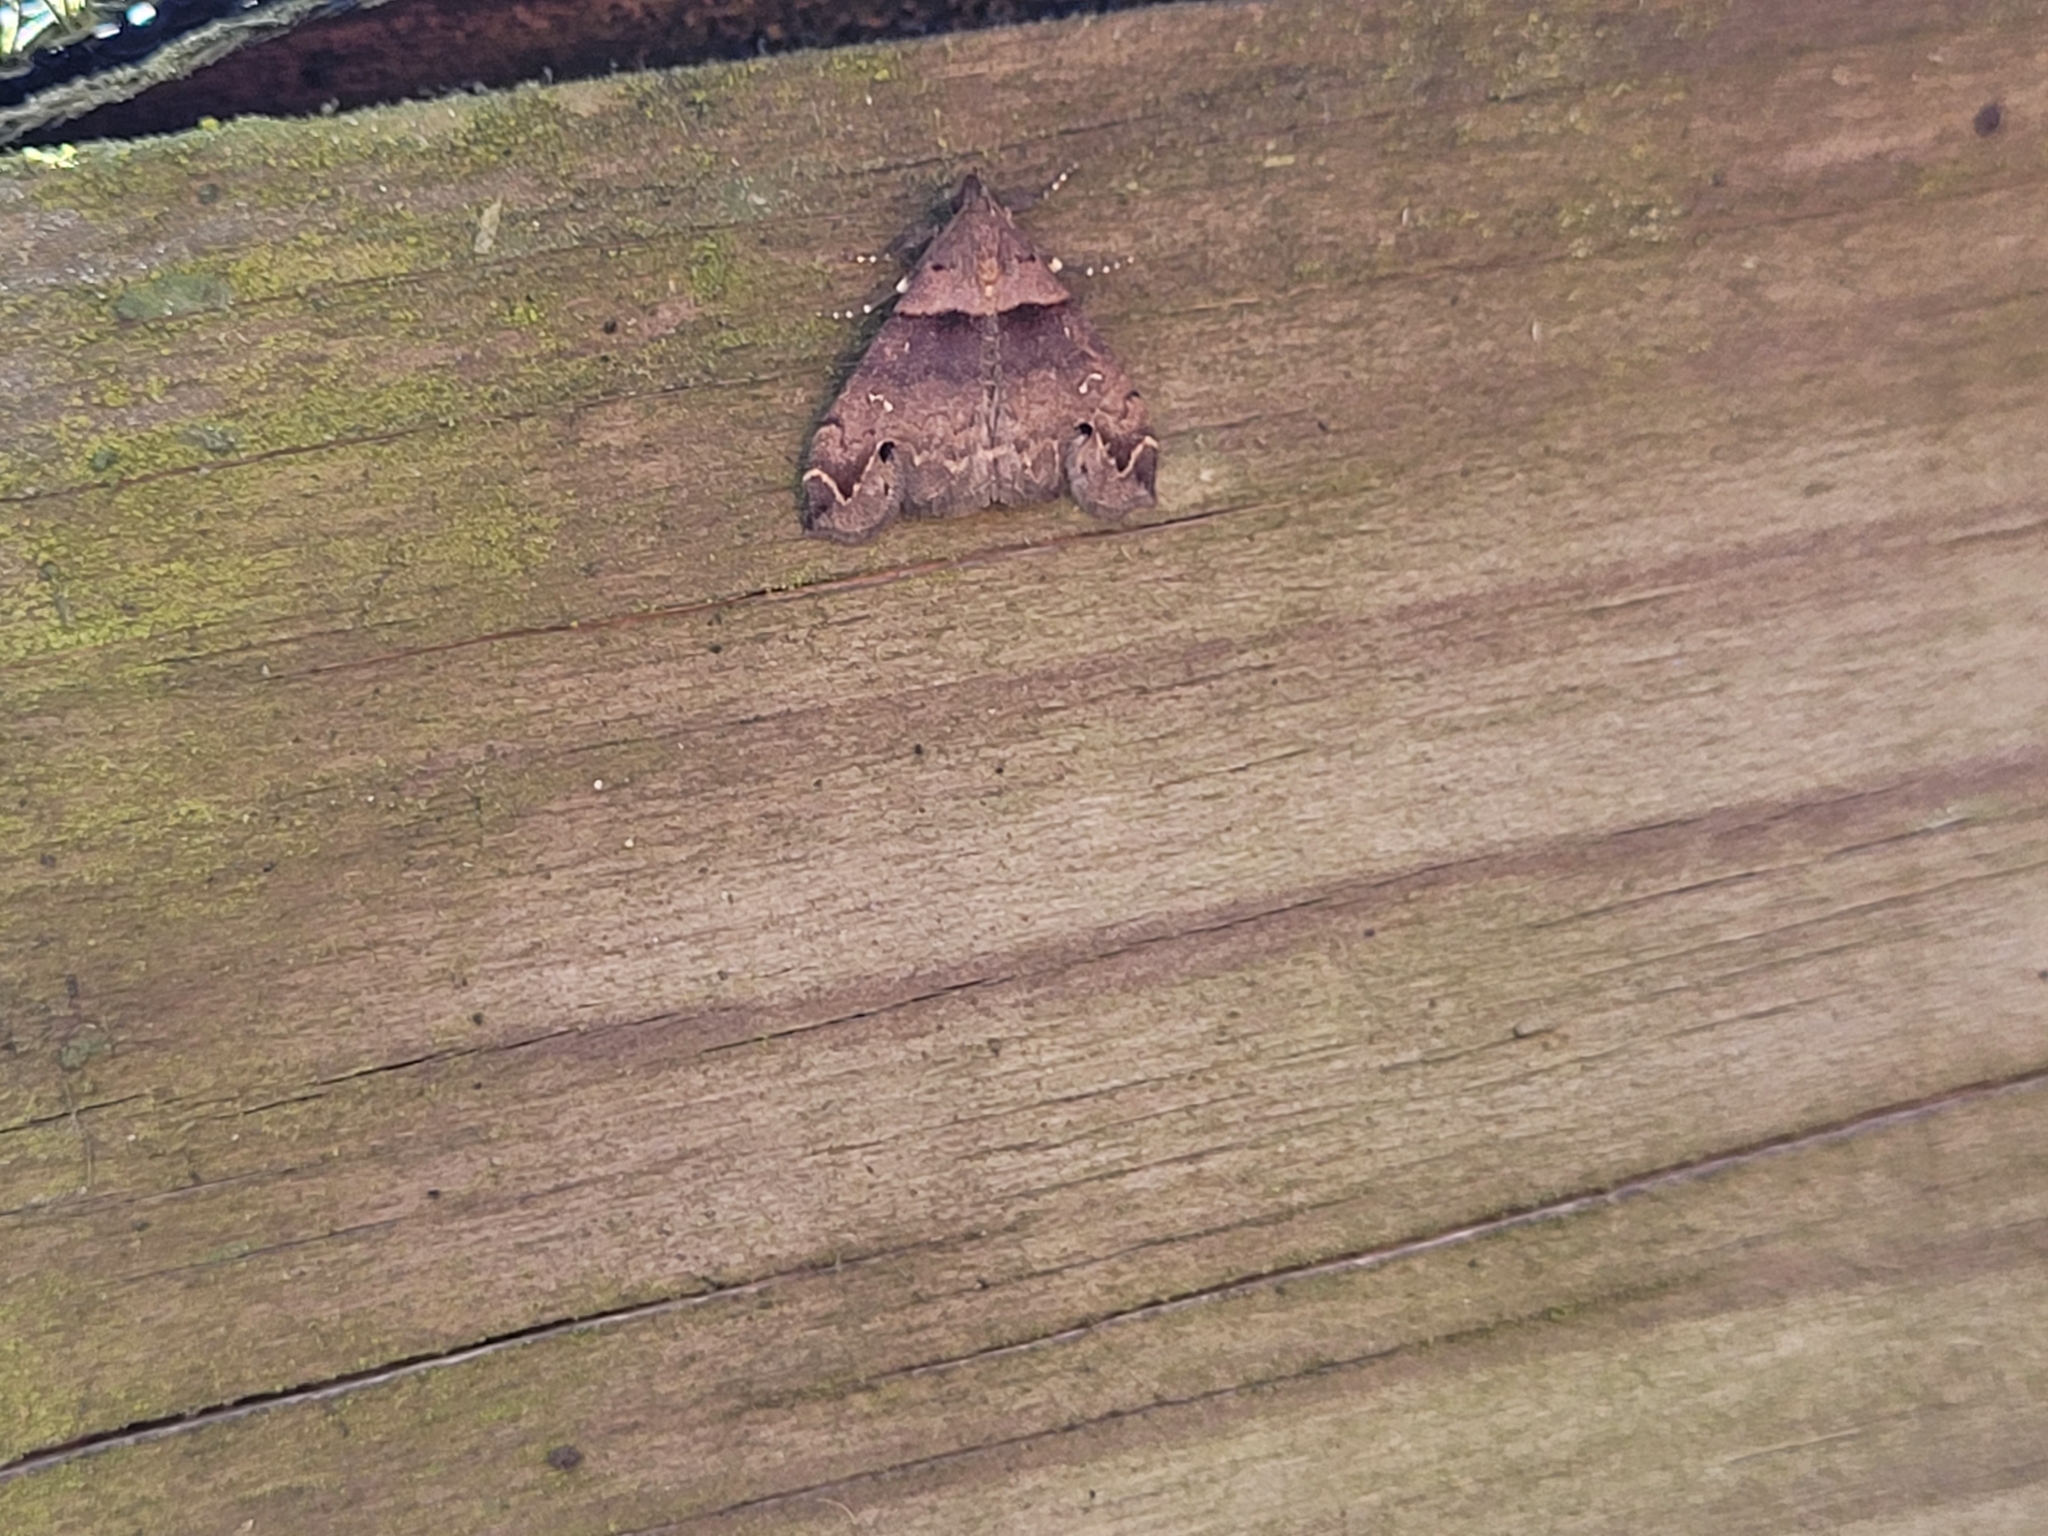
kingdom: Animalia
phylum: Arthropoda
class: Insecta
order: Lepidoptera
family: Erebidae
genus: Lascoria
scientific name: Lascoria ambigualis
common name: Ambiguous moth
